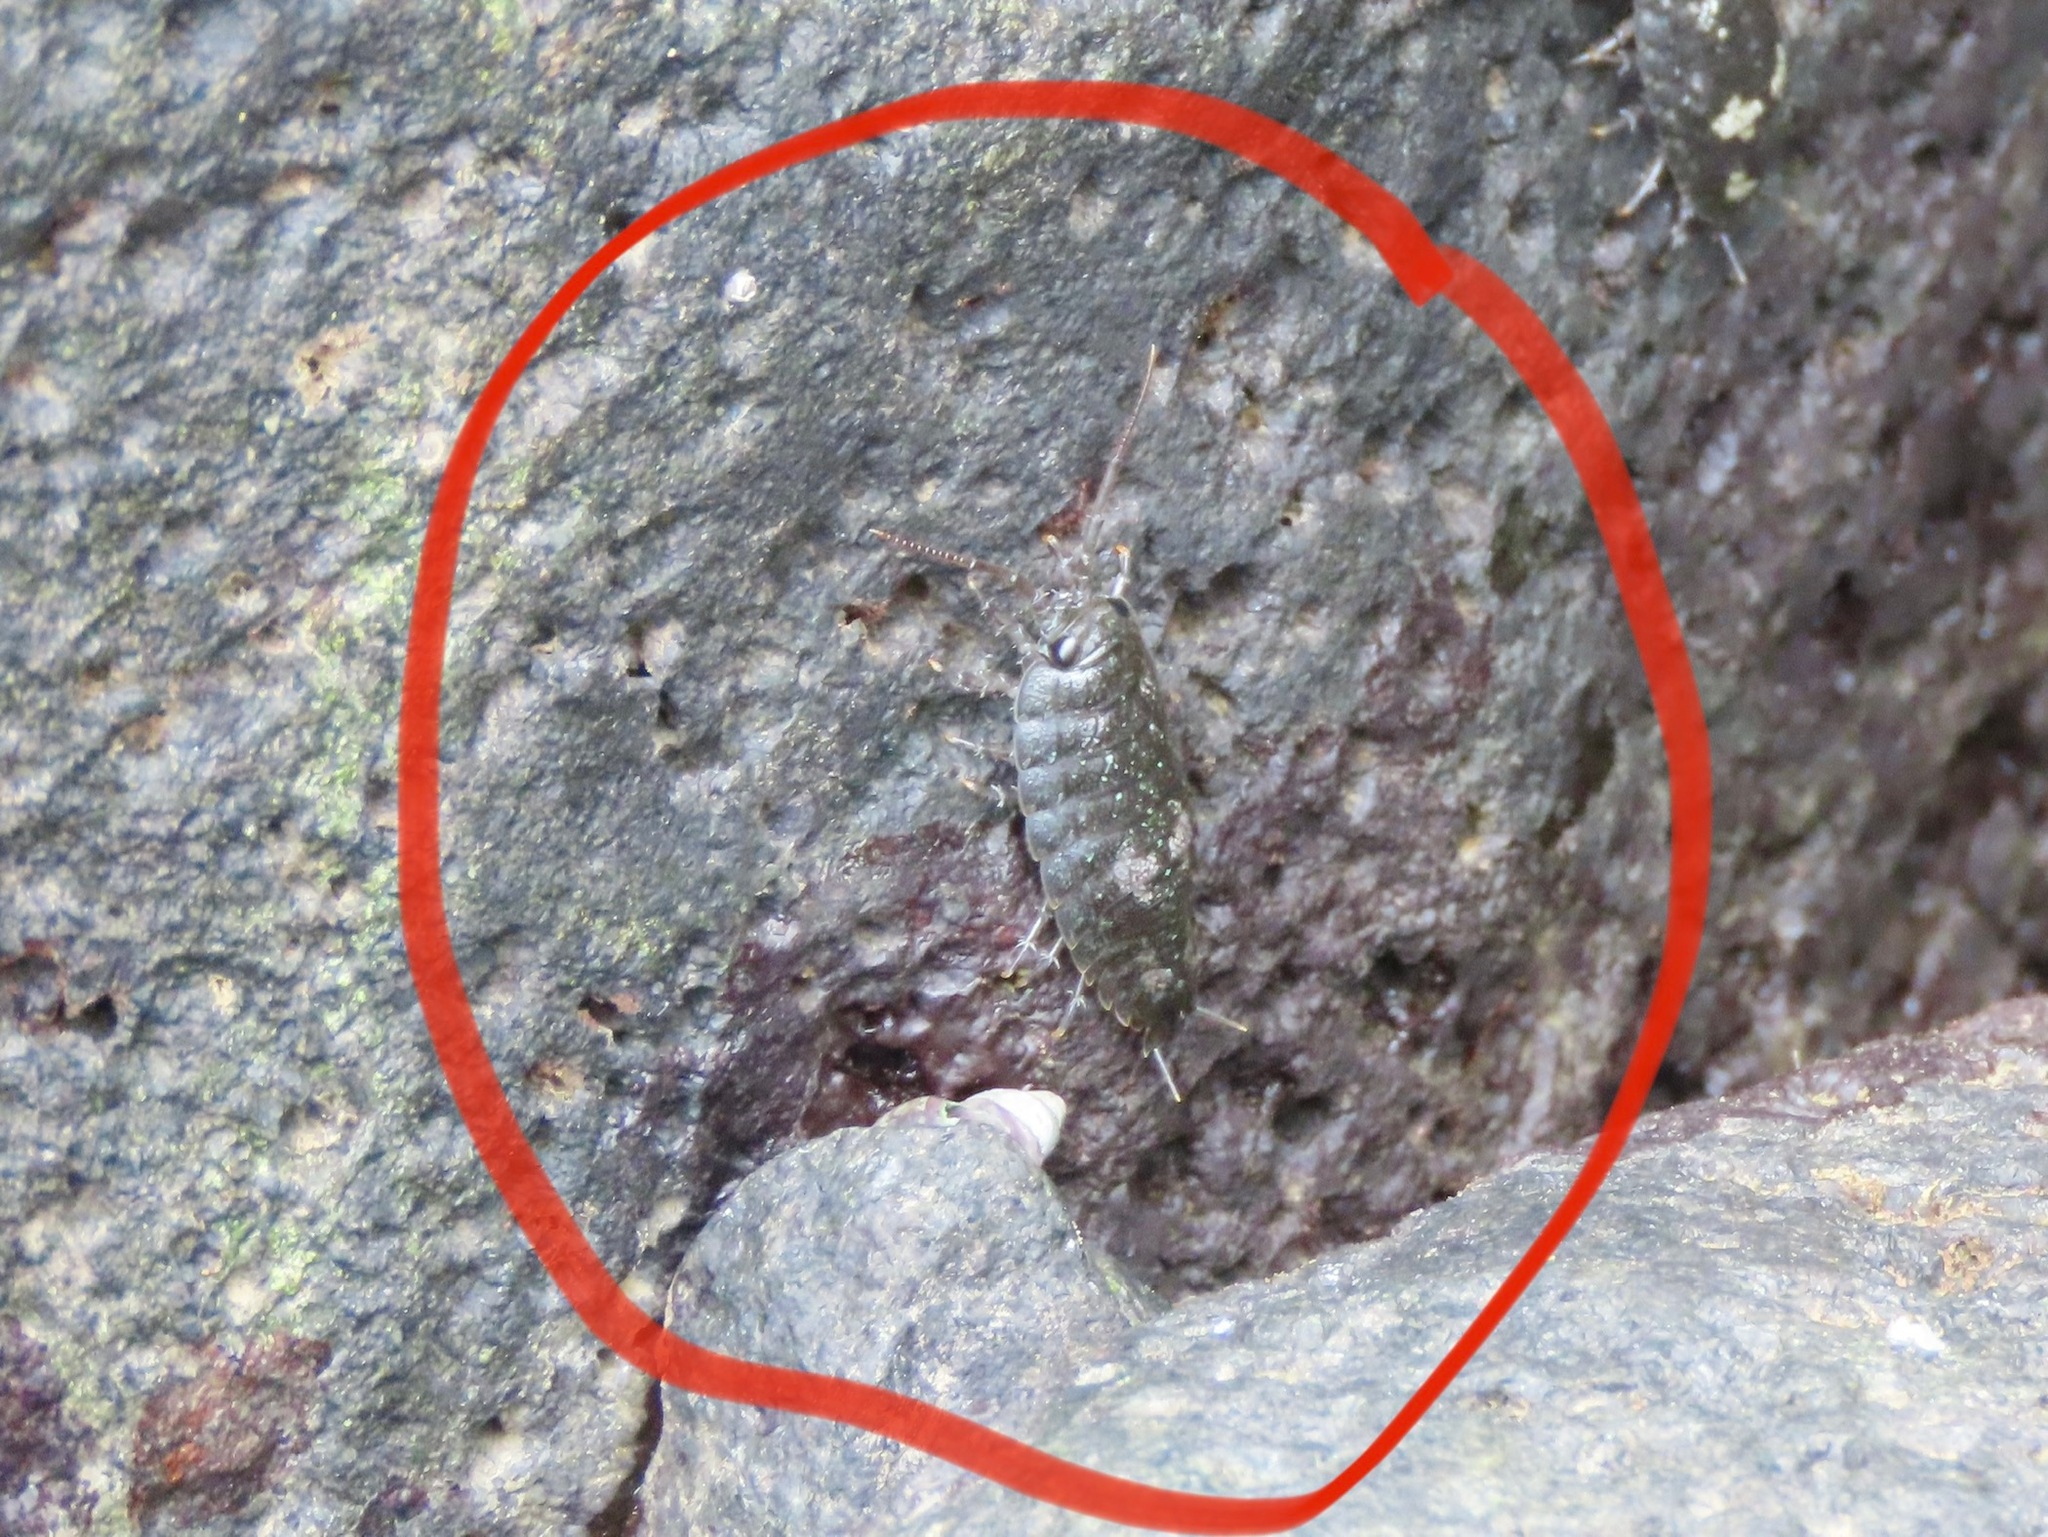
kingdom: Animalia
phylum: Arthropoda
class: Malacostraca
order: Isopoda
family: Ligiidae
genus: Ligia
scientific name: Ligia pallasii
